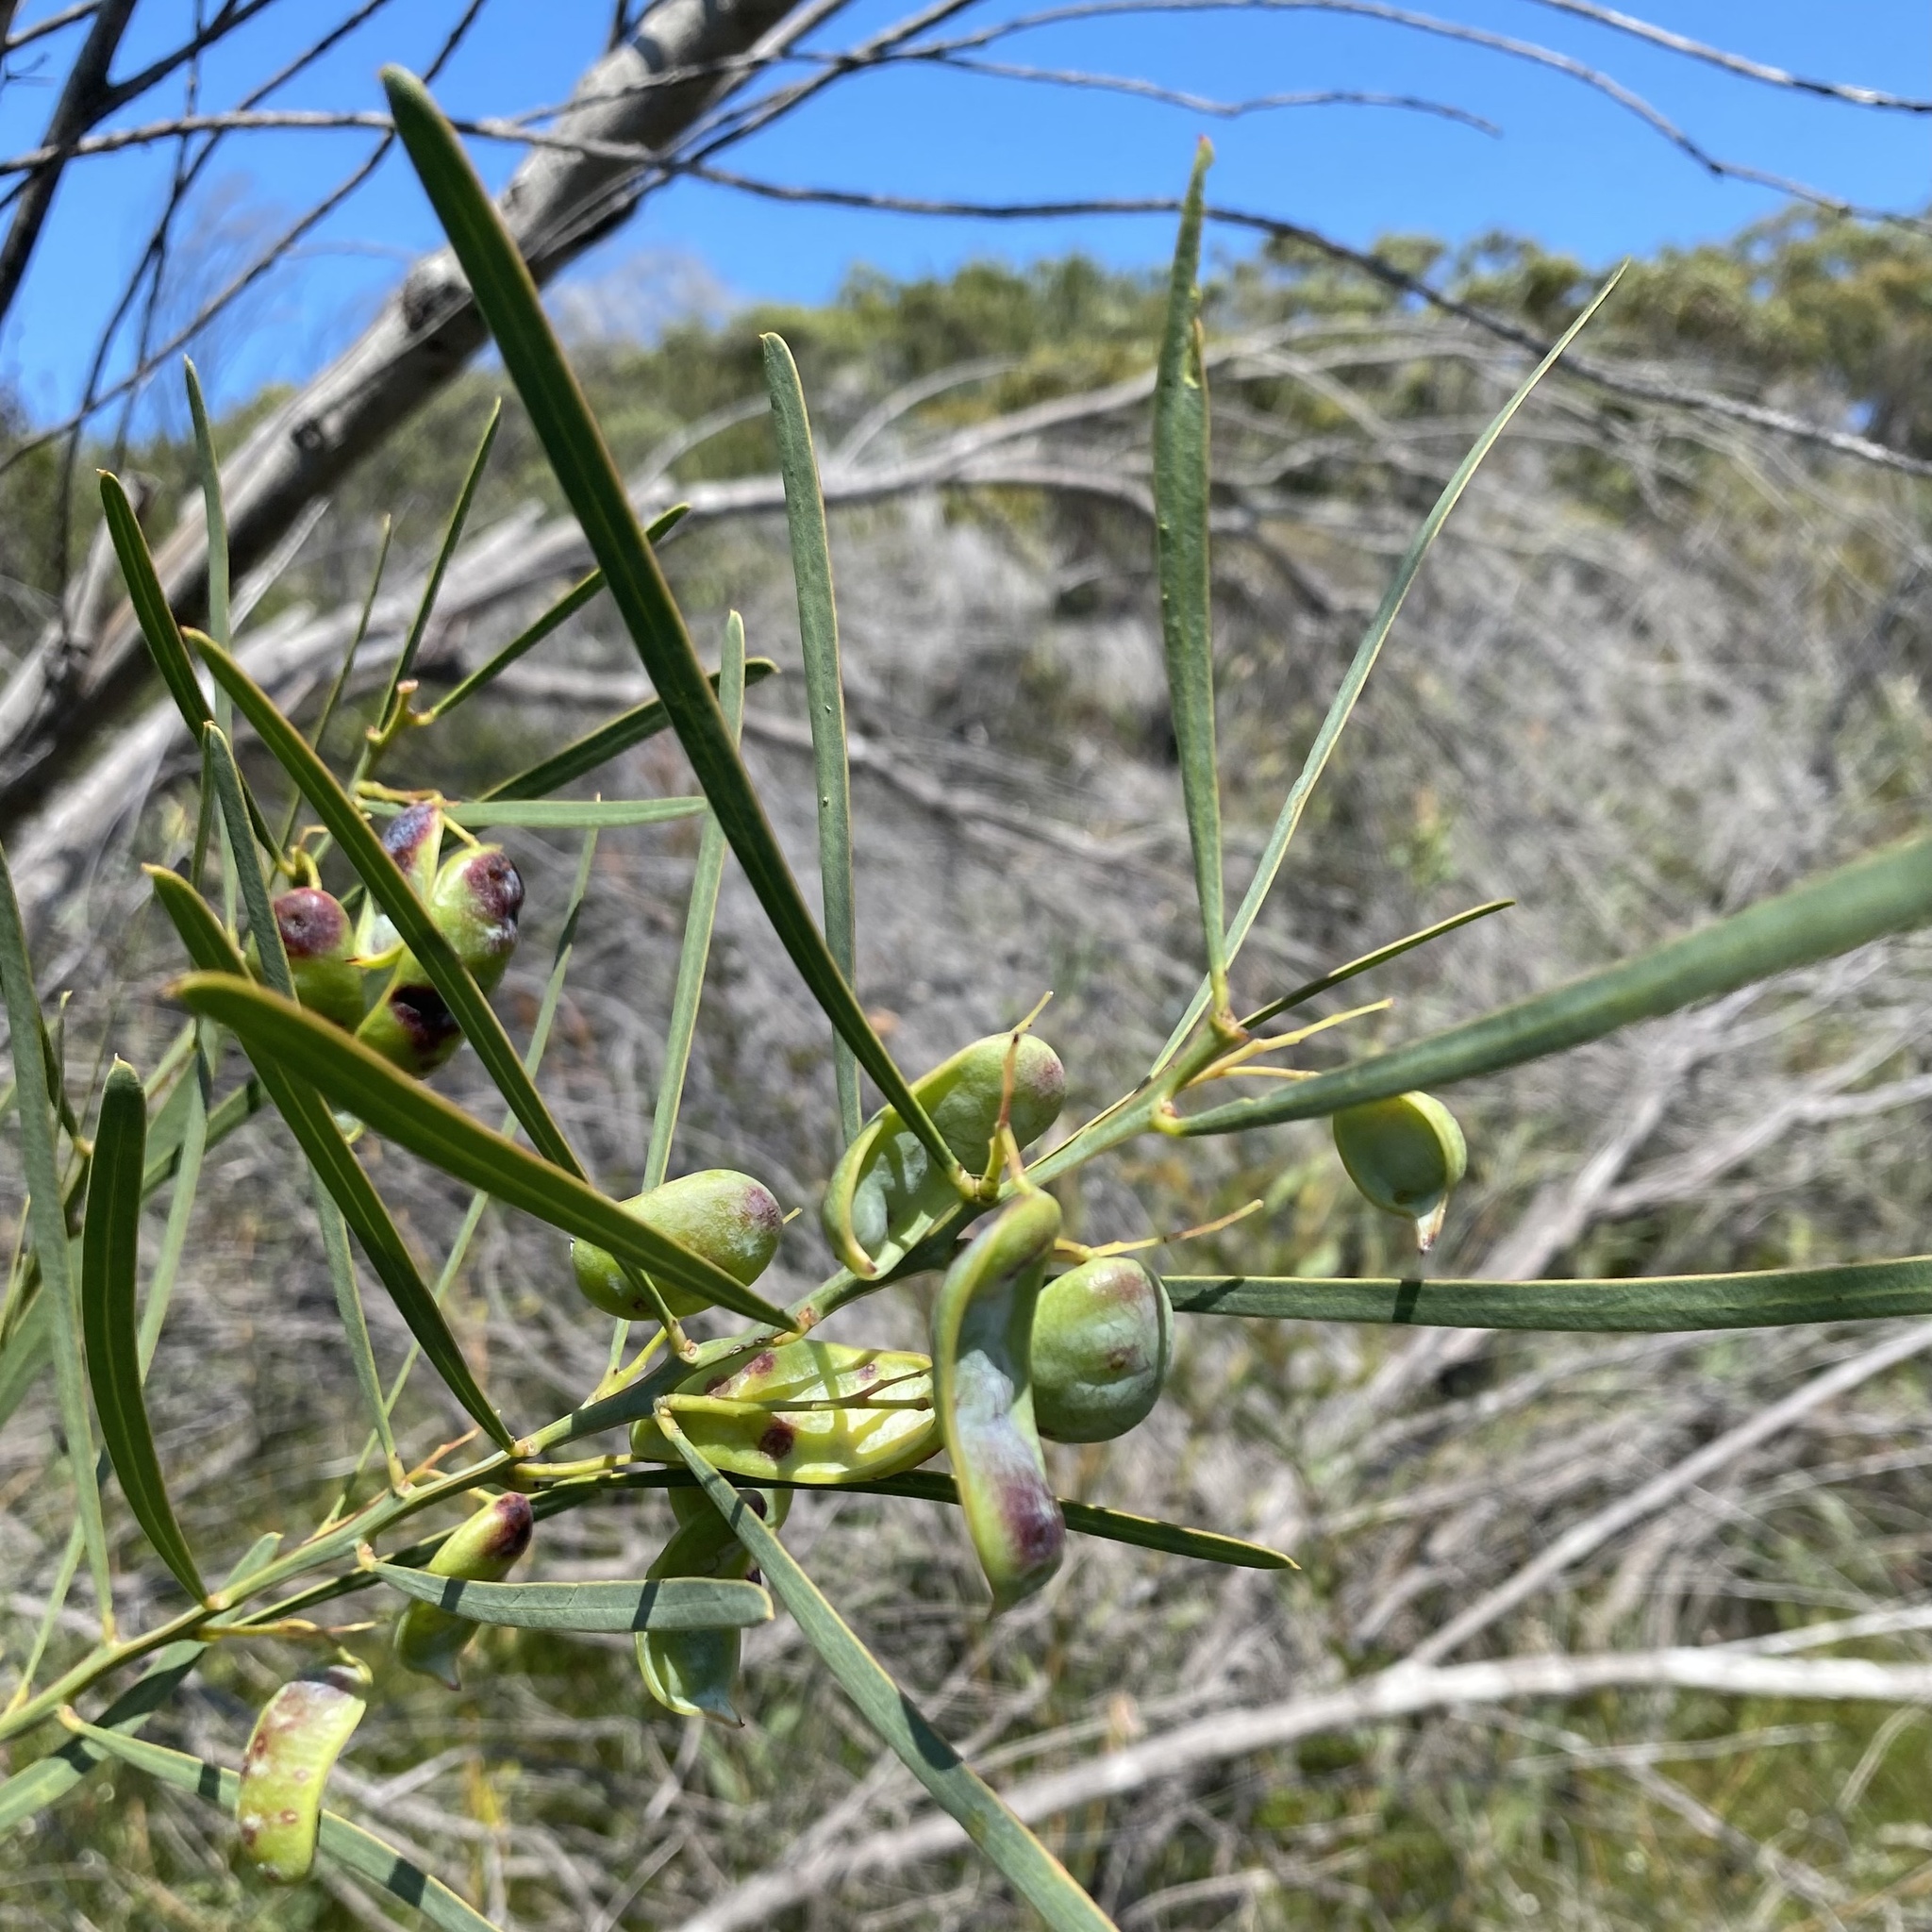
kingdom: Plantae
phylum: Tracheophyta
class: Magnoliopsida
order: Fabales
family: Fabaceae
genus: Acacia
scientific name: Acacia suaveolens
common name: Sweet acacia
